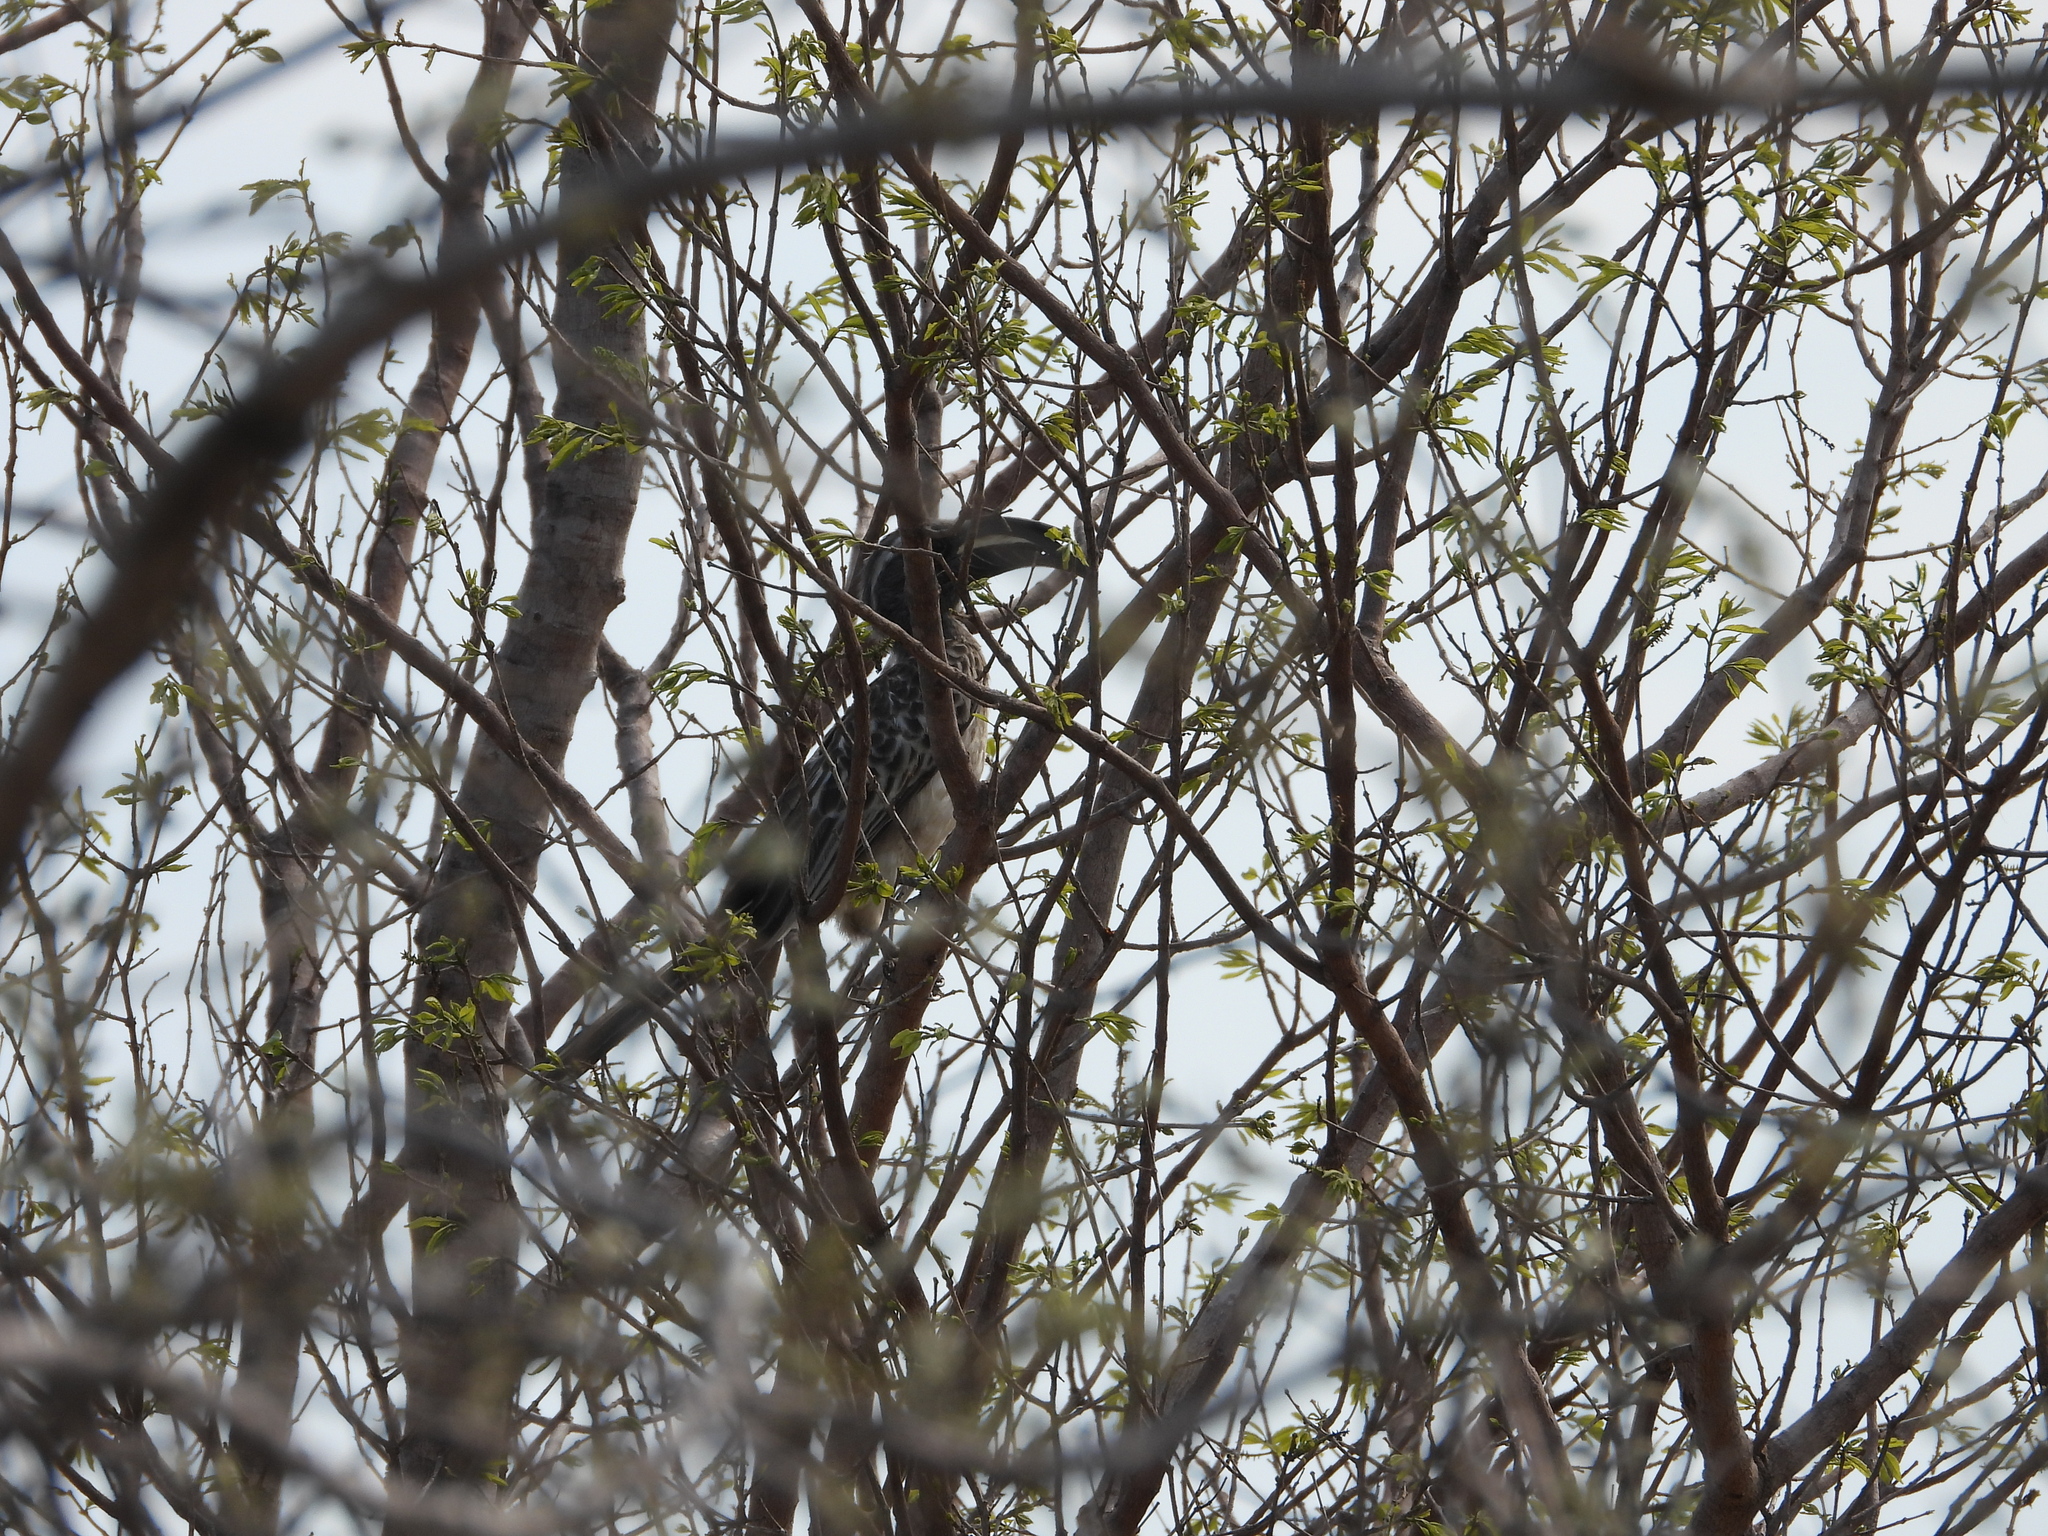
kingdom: Animalia
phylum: Chordata
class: Aves
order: Bucerotiformes
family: Bucerotidae
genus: Lophoceros
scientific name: Lophoceros nasutus
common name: African grey hornbill
